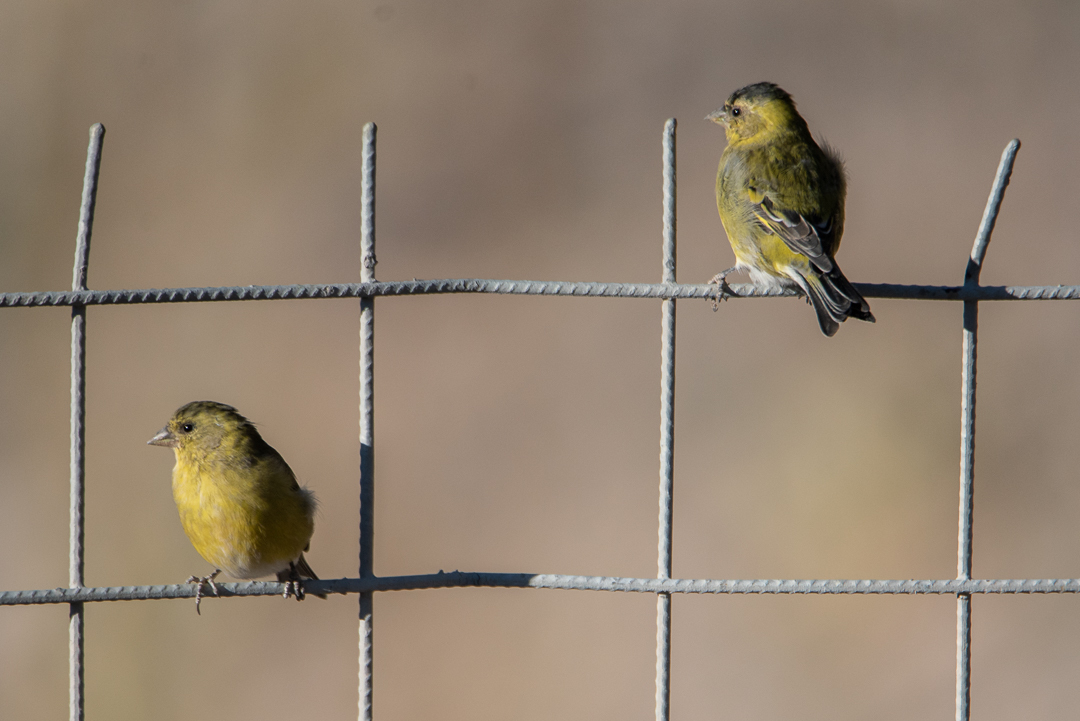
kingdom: Animalia
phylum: Chordata
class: Aves
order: Passeriformes
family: Fringillidae
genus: Spinus
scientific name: Spinus barbatus
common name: Black-chinned siskin
